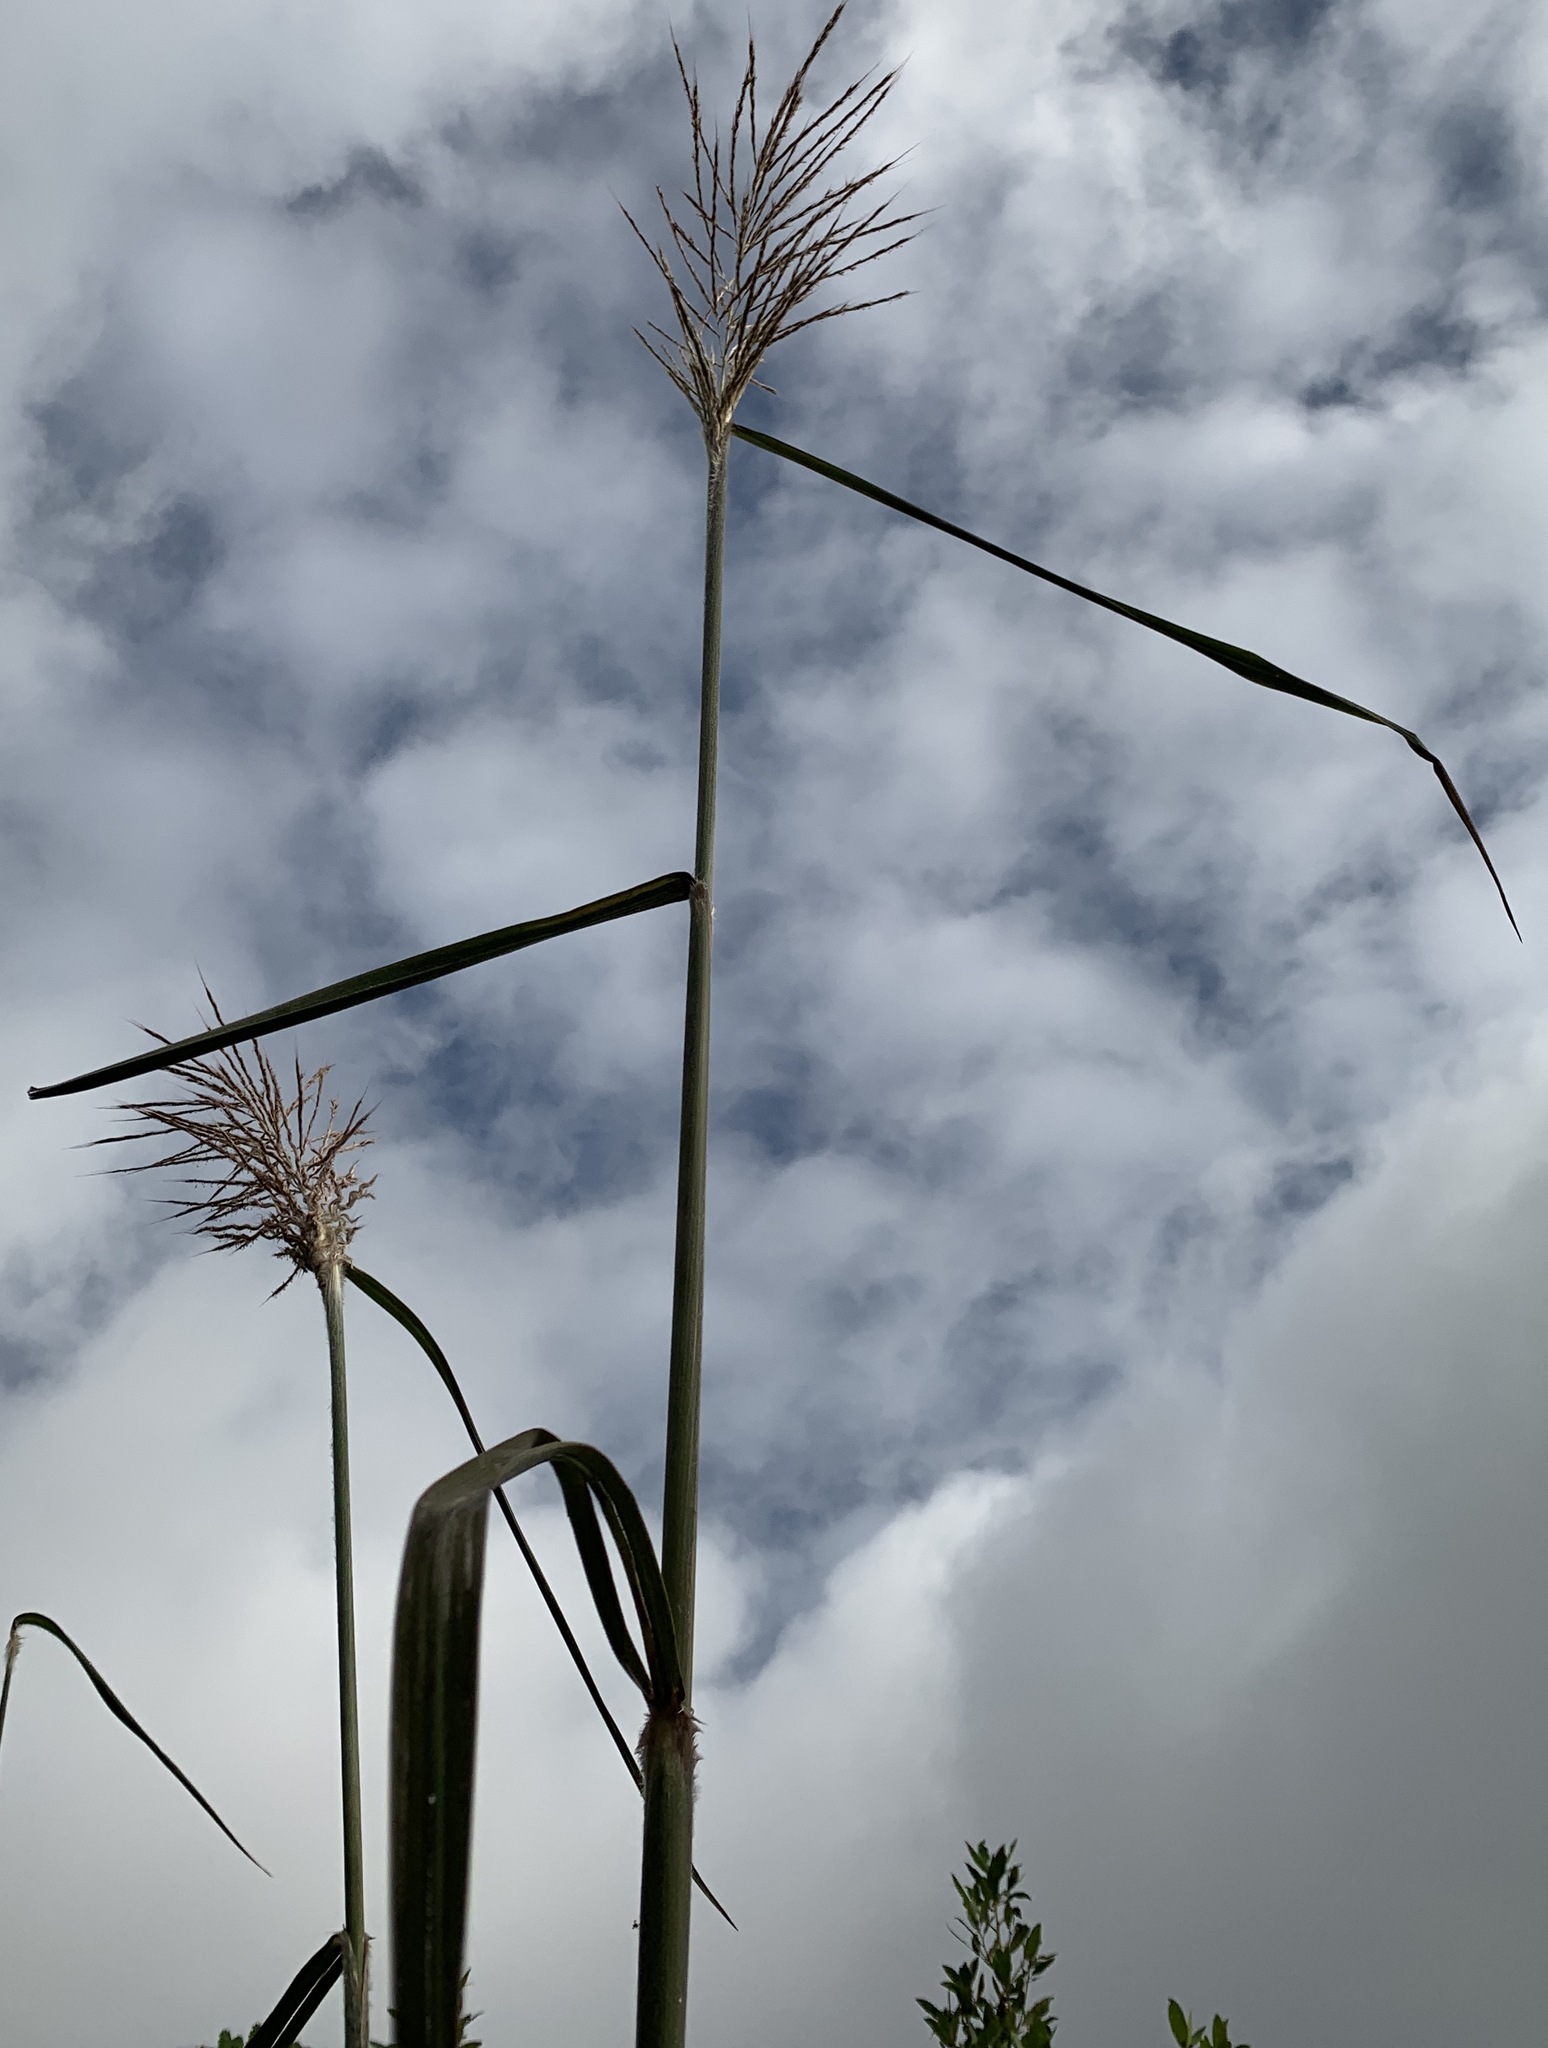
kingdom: Plantae
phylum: Tracheophyta
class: Liliopsida
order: Poales
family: Poaceae
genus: Erianthus
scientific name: Erianthus giganteus
